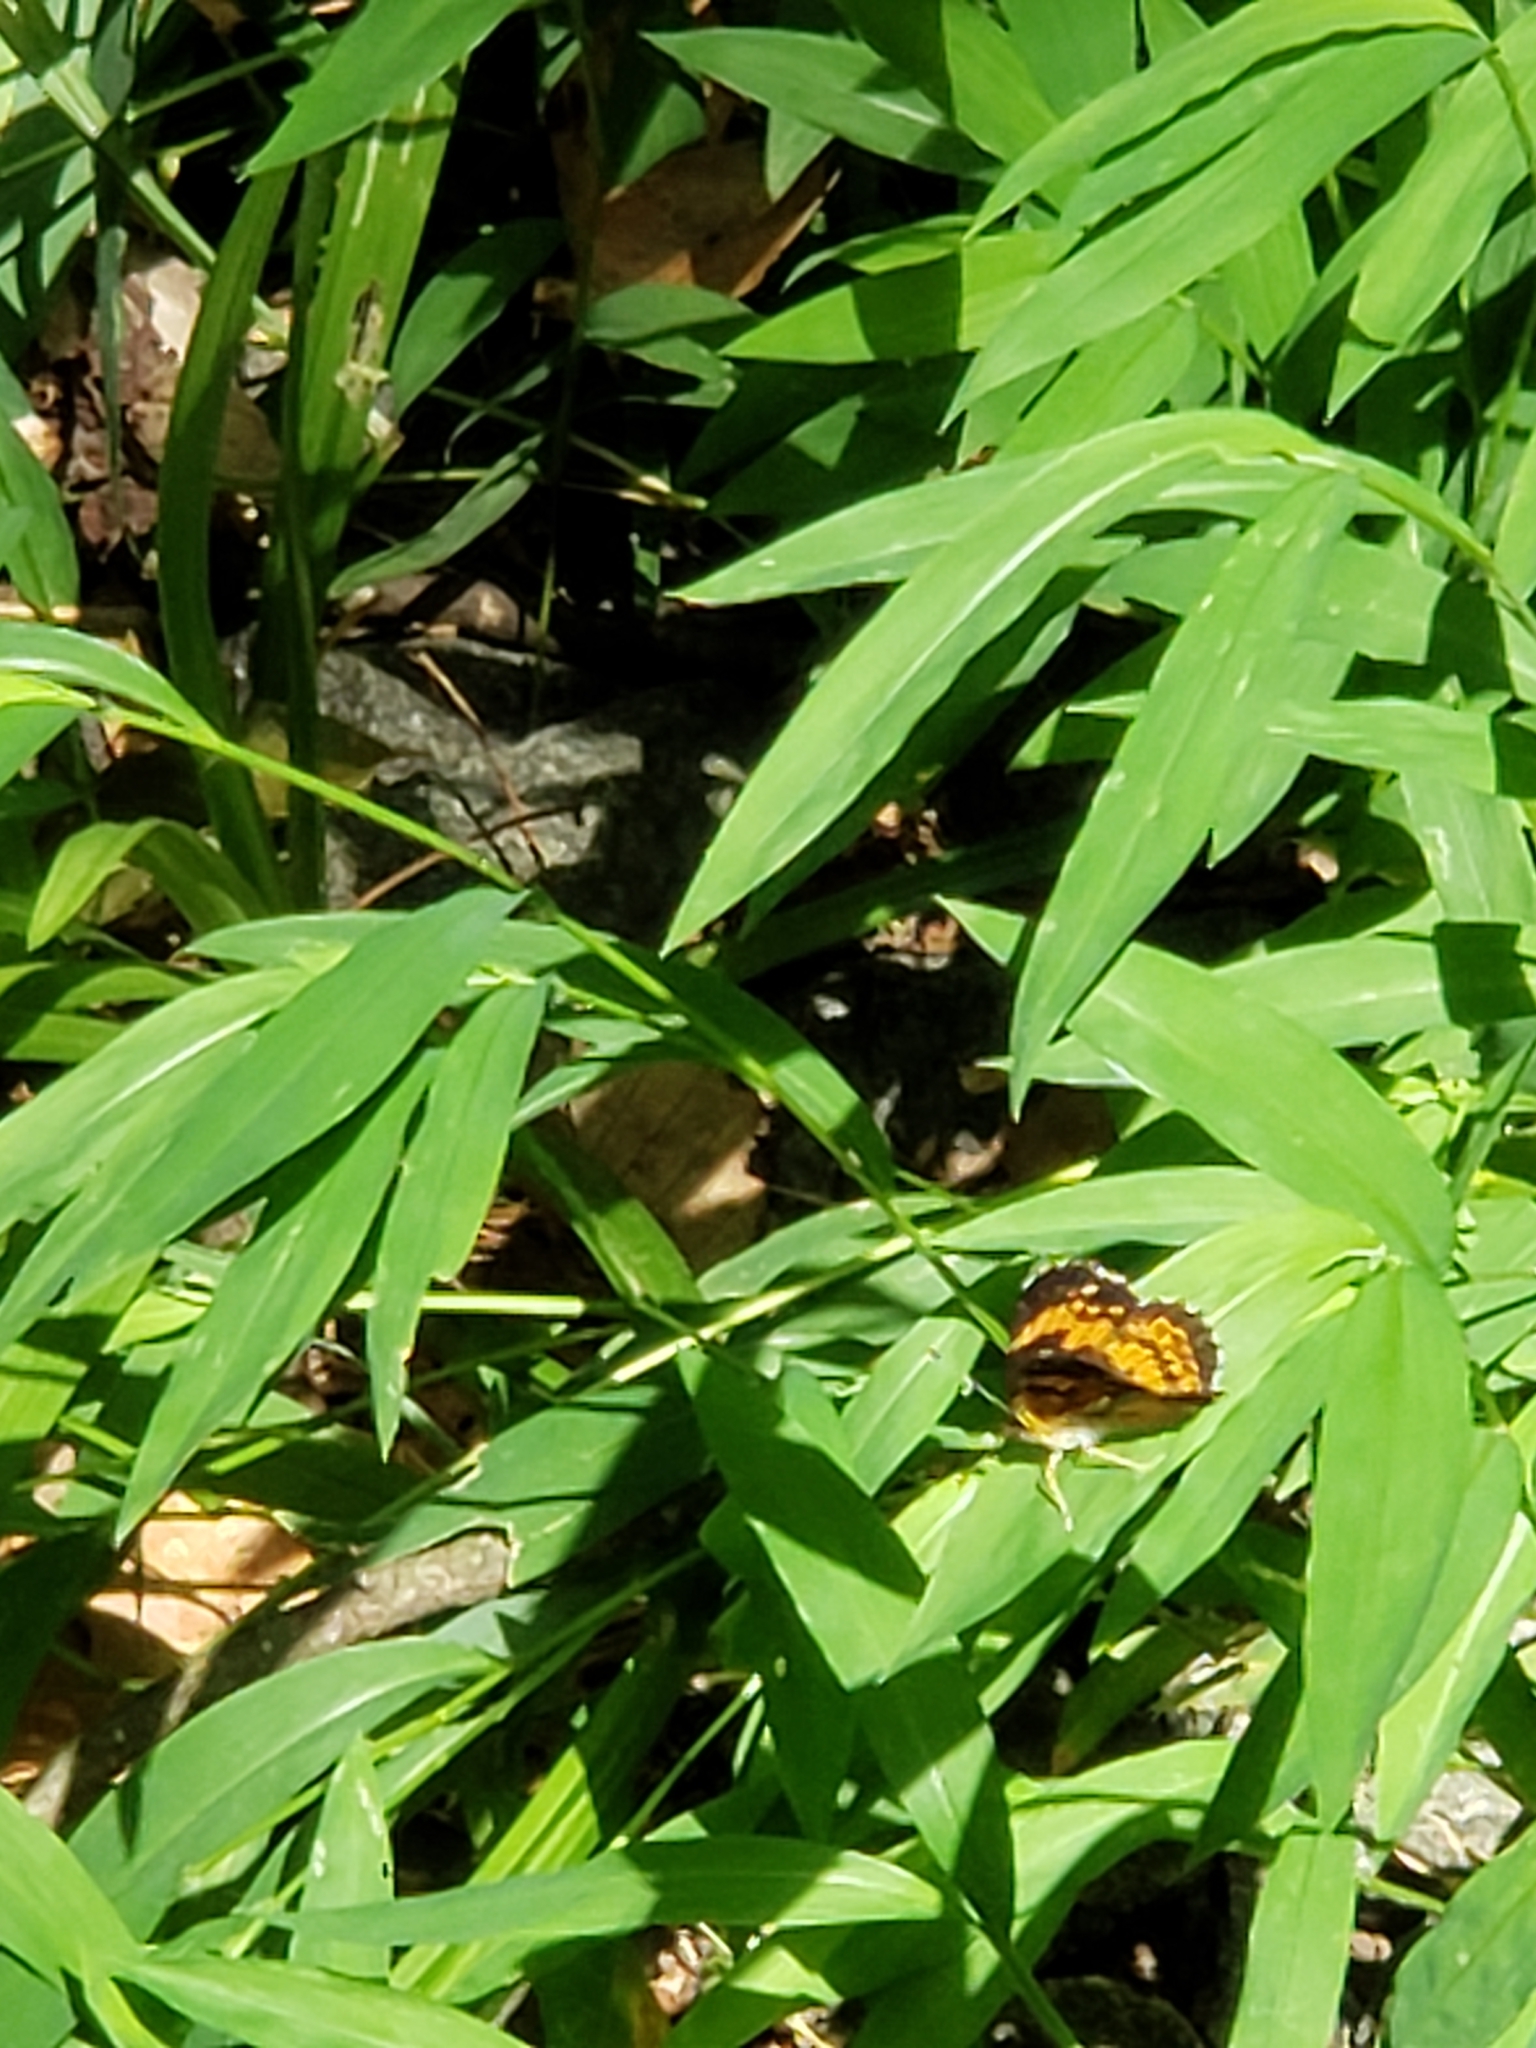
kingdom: Animalia
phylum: Arthropoda
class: Insecta
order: Lepidoptera
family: Nymphalidae
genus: Chlosyne
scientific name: Chlosyne nycteis
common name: Silvery checkerspot
